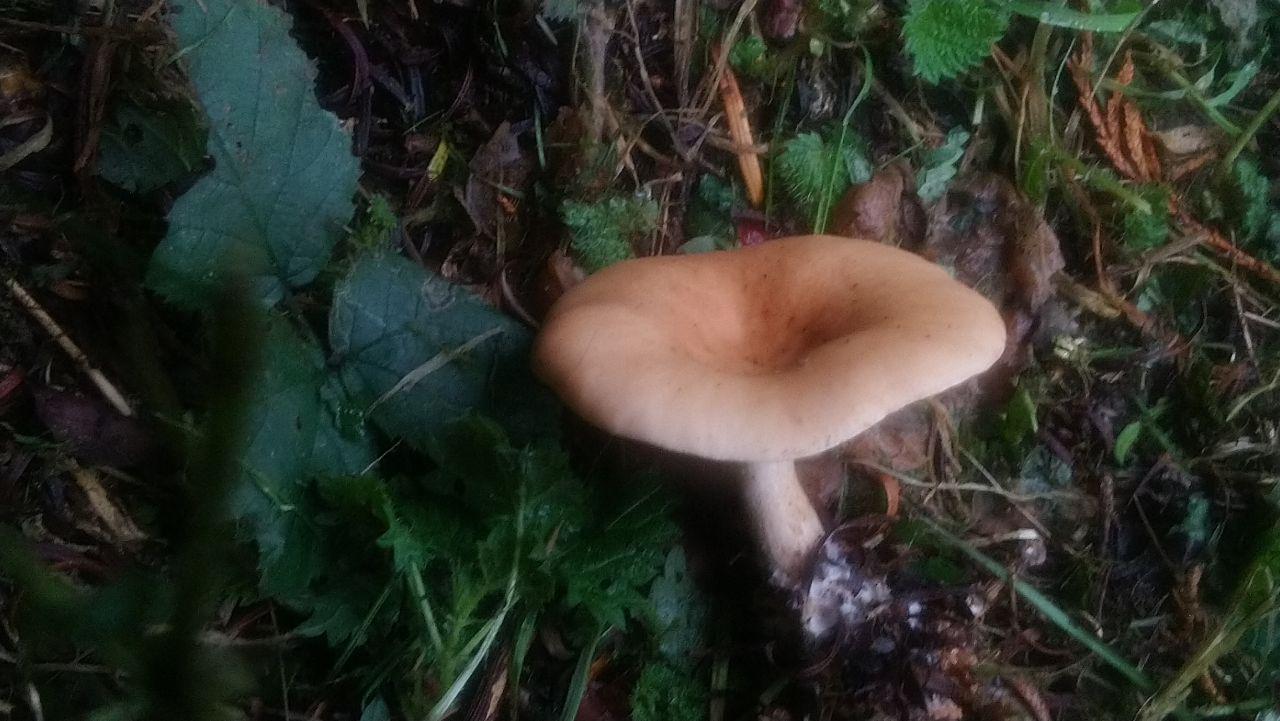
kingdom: Fungi
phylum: Basidiomycota
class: Agaricomycetes
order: Agaricales
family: Tricholomataceae
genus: Paralepista
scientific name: Paralepista flaccida
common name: Tawny funnel cap
